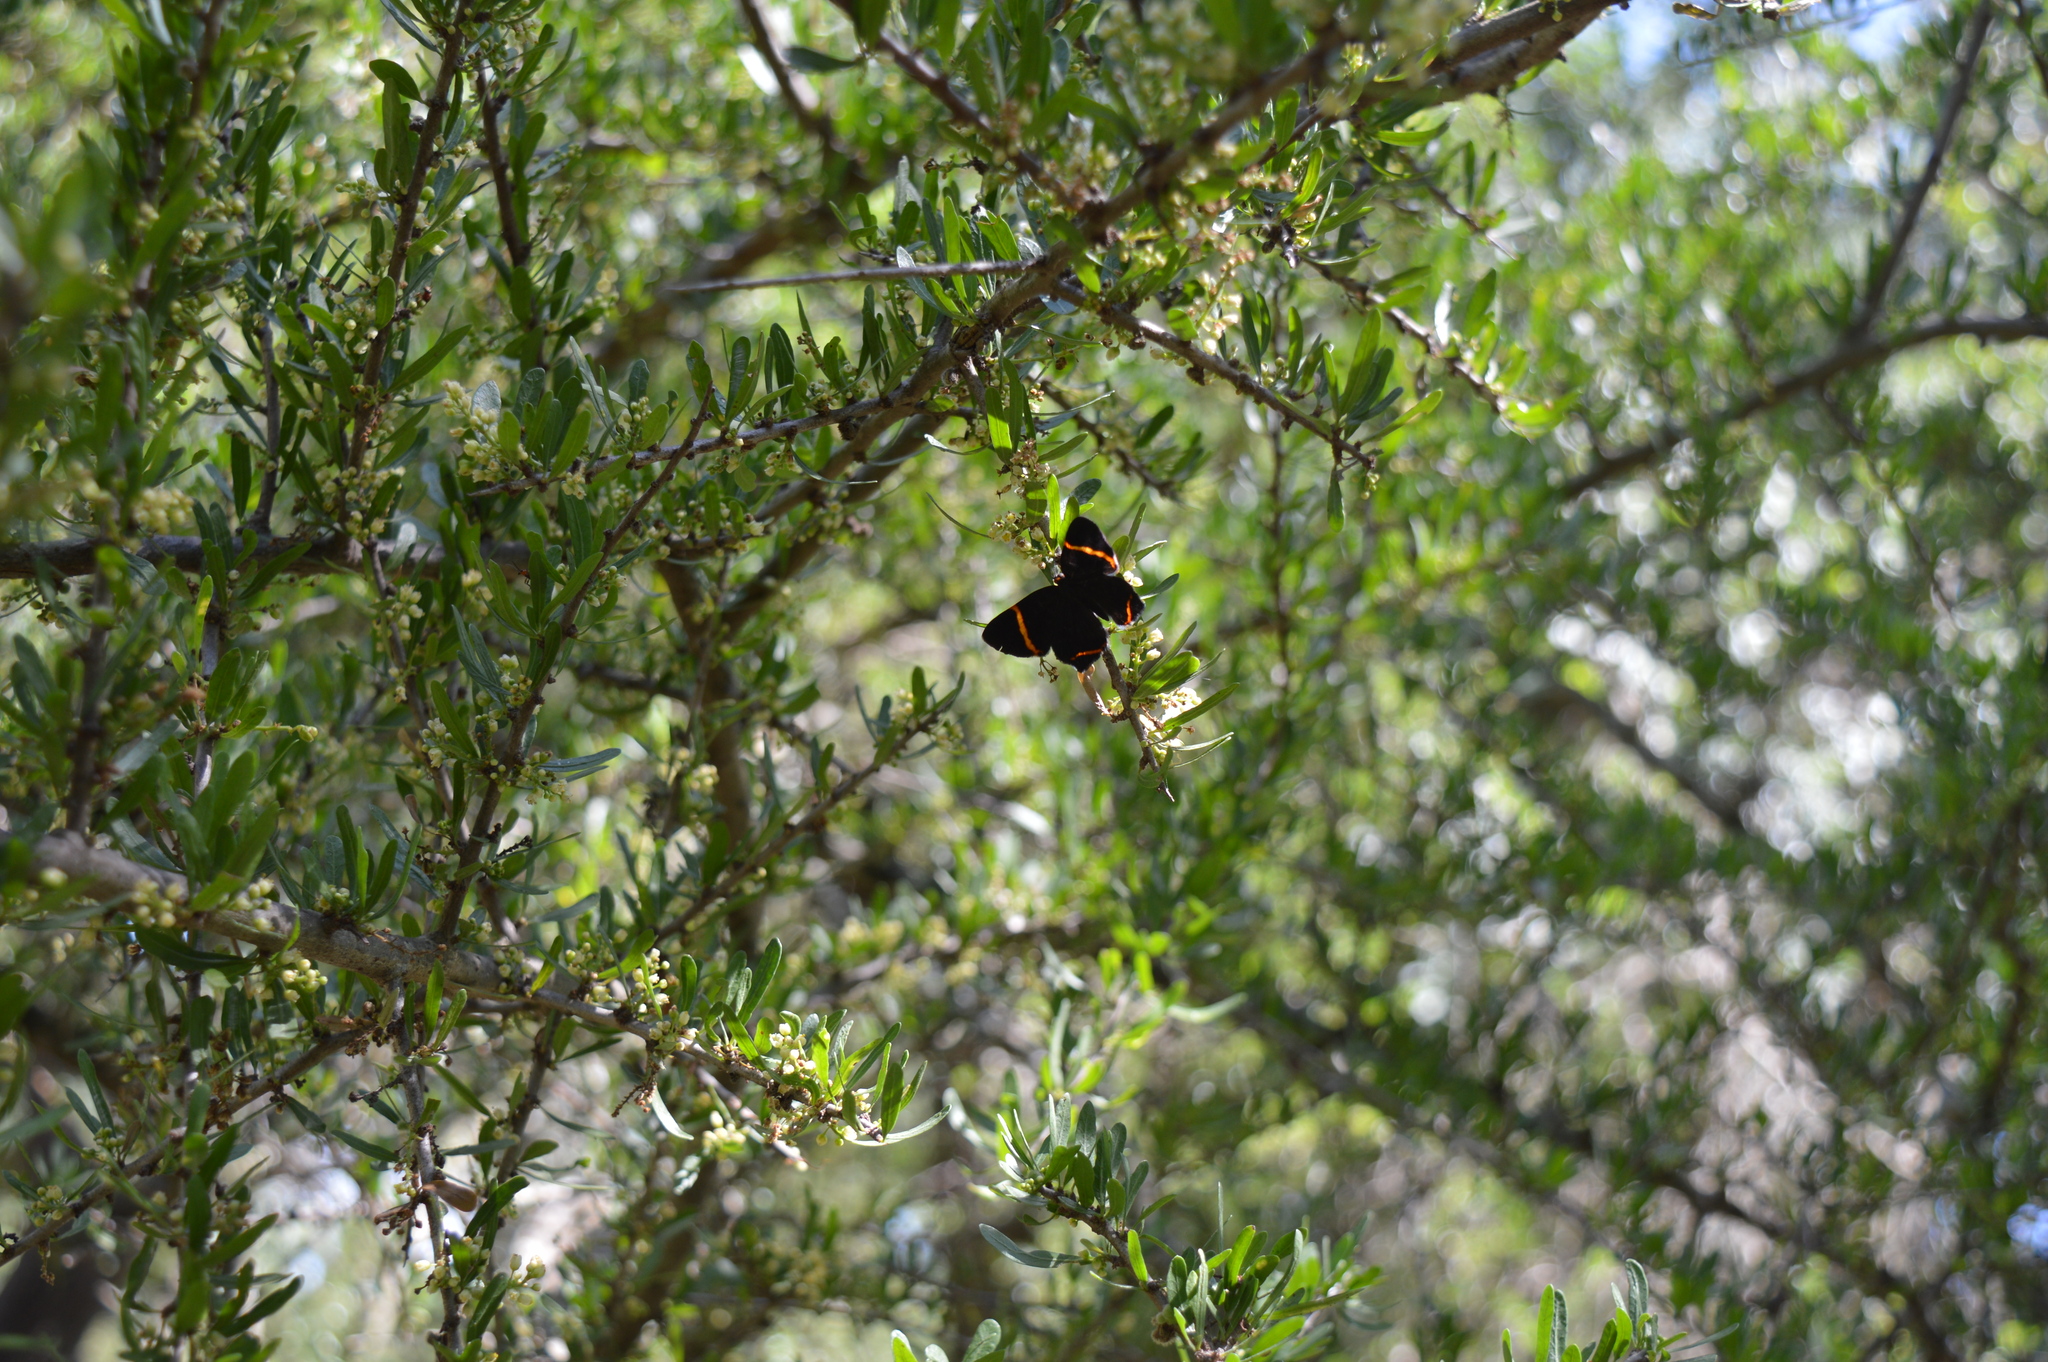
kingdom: Animalia
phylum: Arthropoda
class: Insecta
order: Lepidoptera
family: Riodinidae
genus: Riodina
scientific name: Riodina lysippoides
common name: Little dancer metalmark
